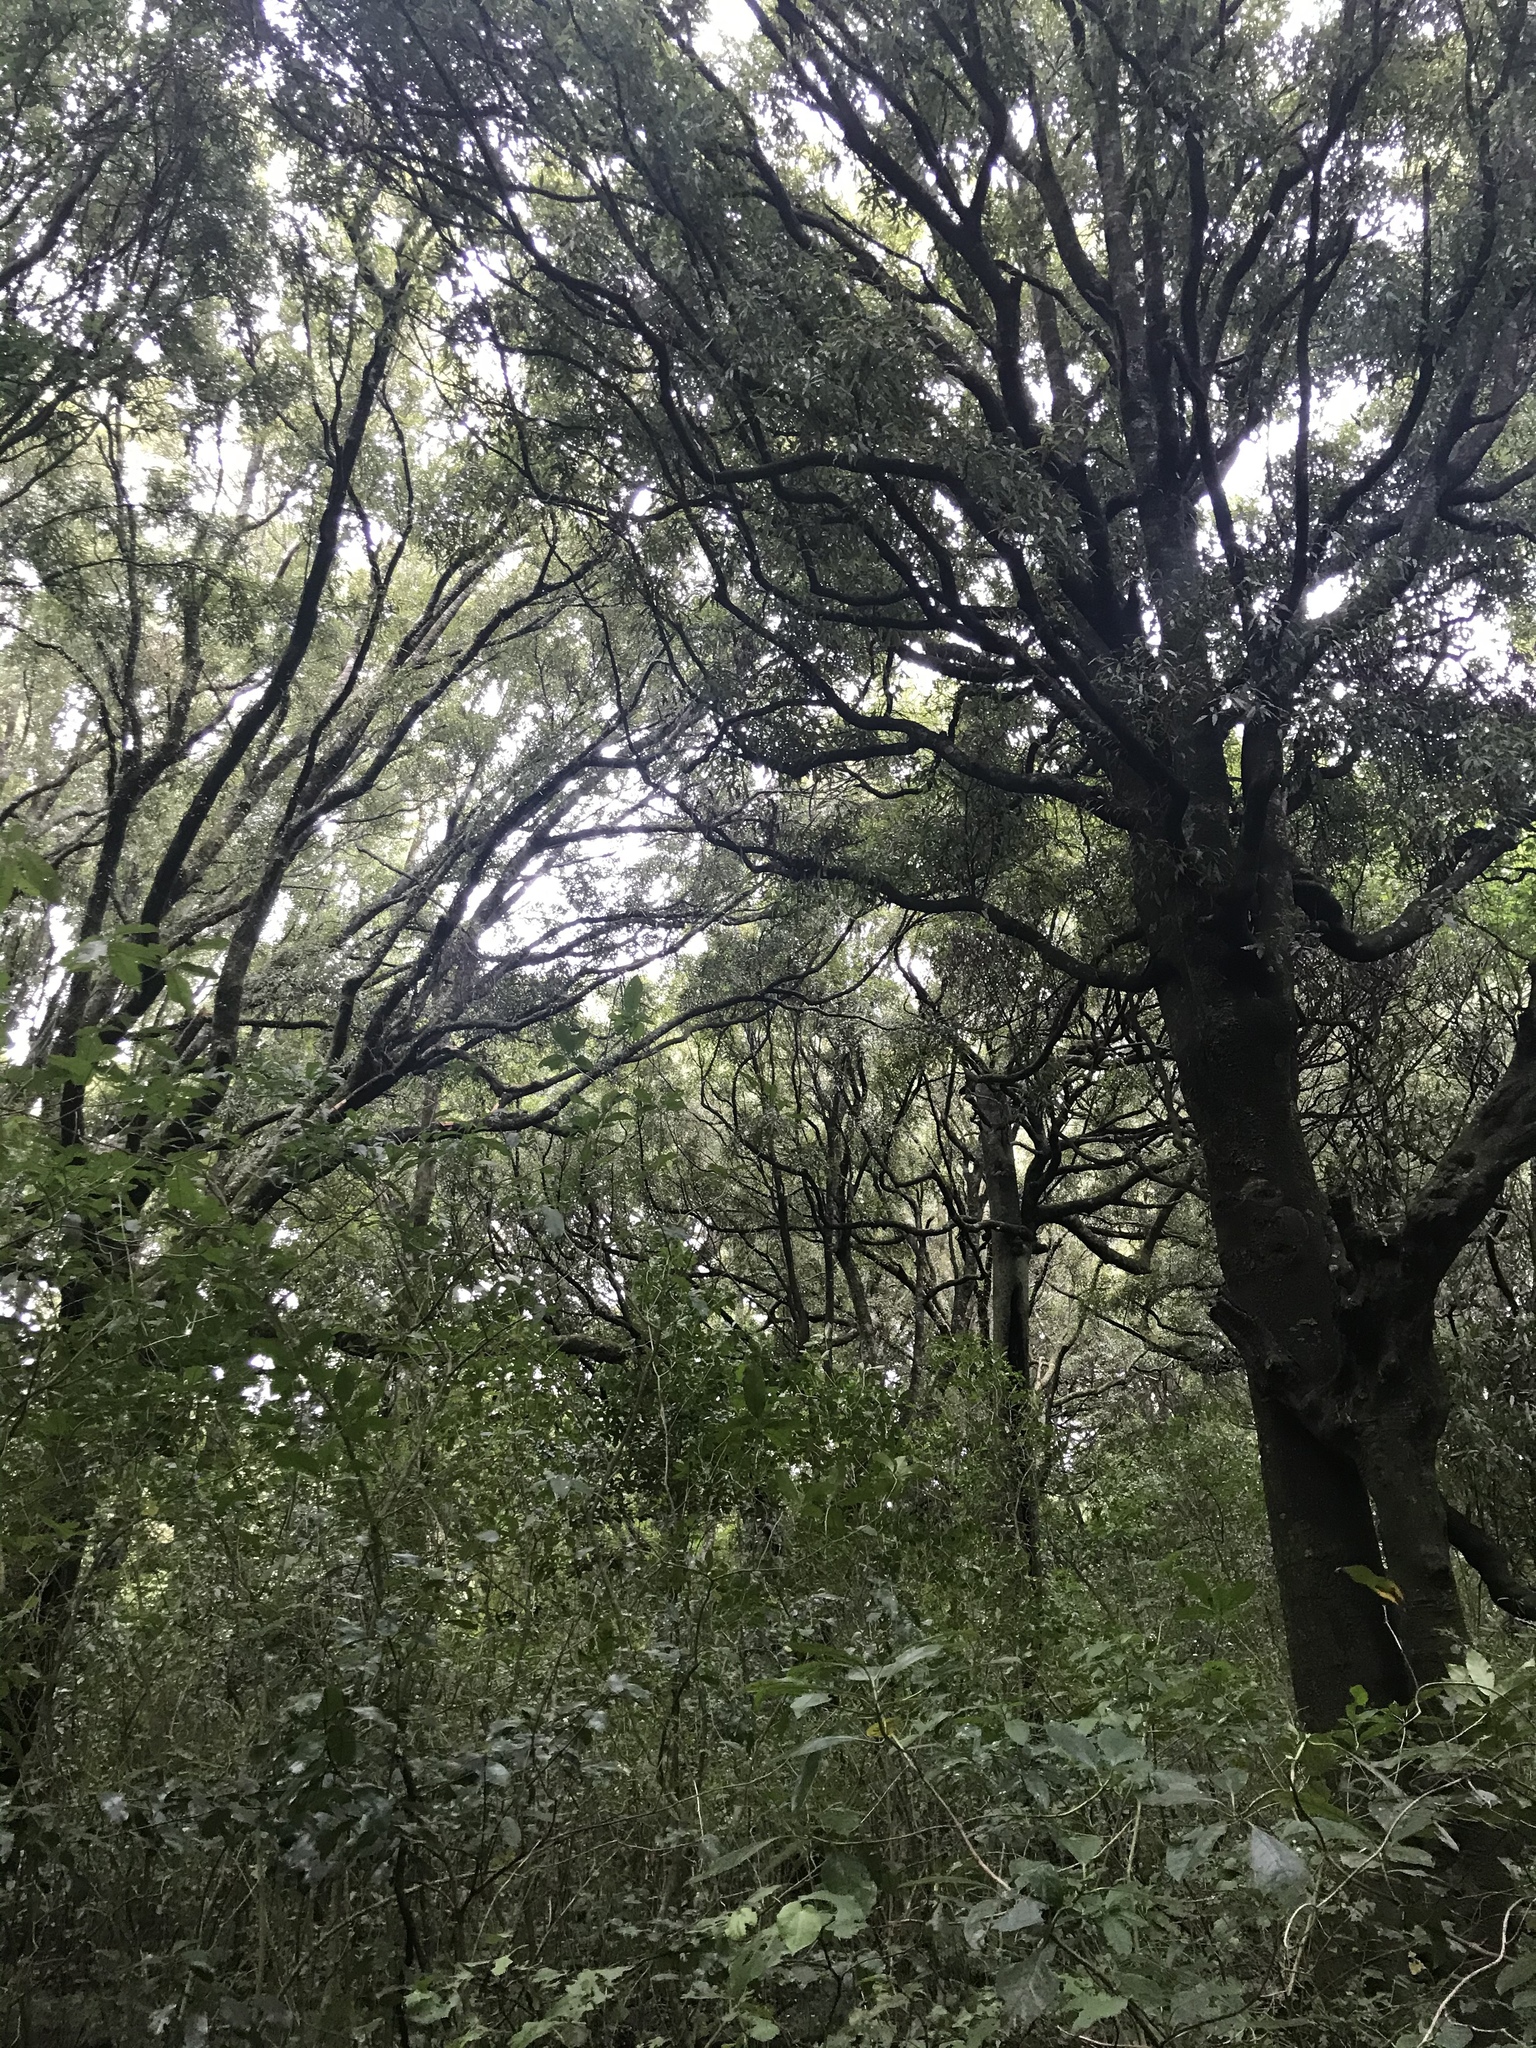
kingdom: Plantae
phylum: Tracheophyta
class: Magnoliopsida
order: Laurales
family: Lauraceae
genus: Beilschmiedia
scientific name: Beilschmiedia tawa
